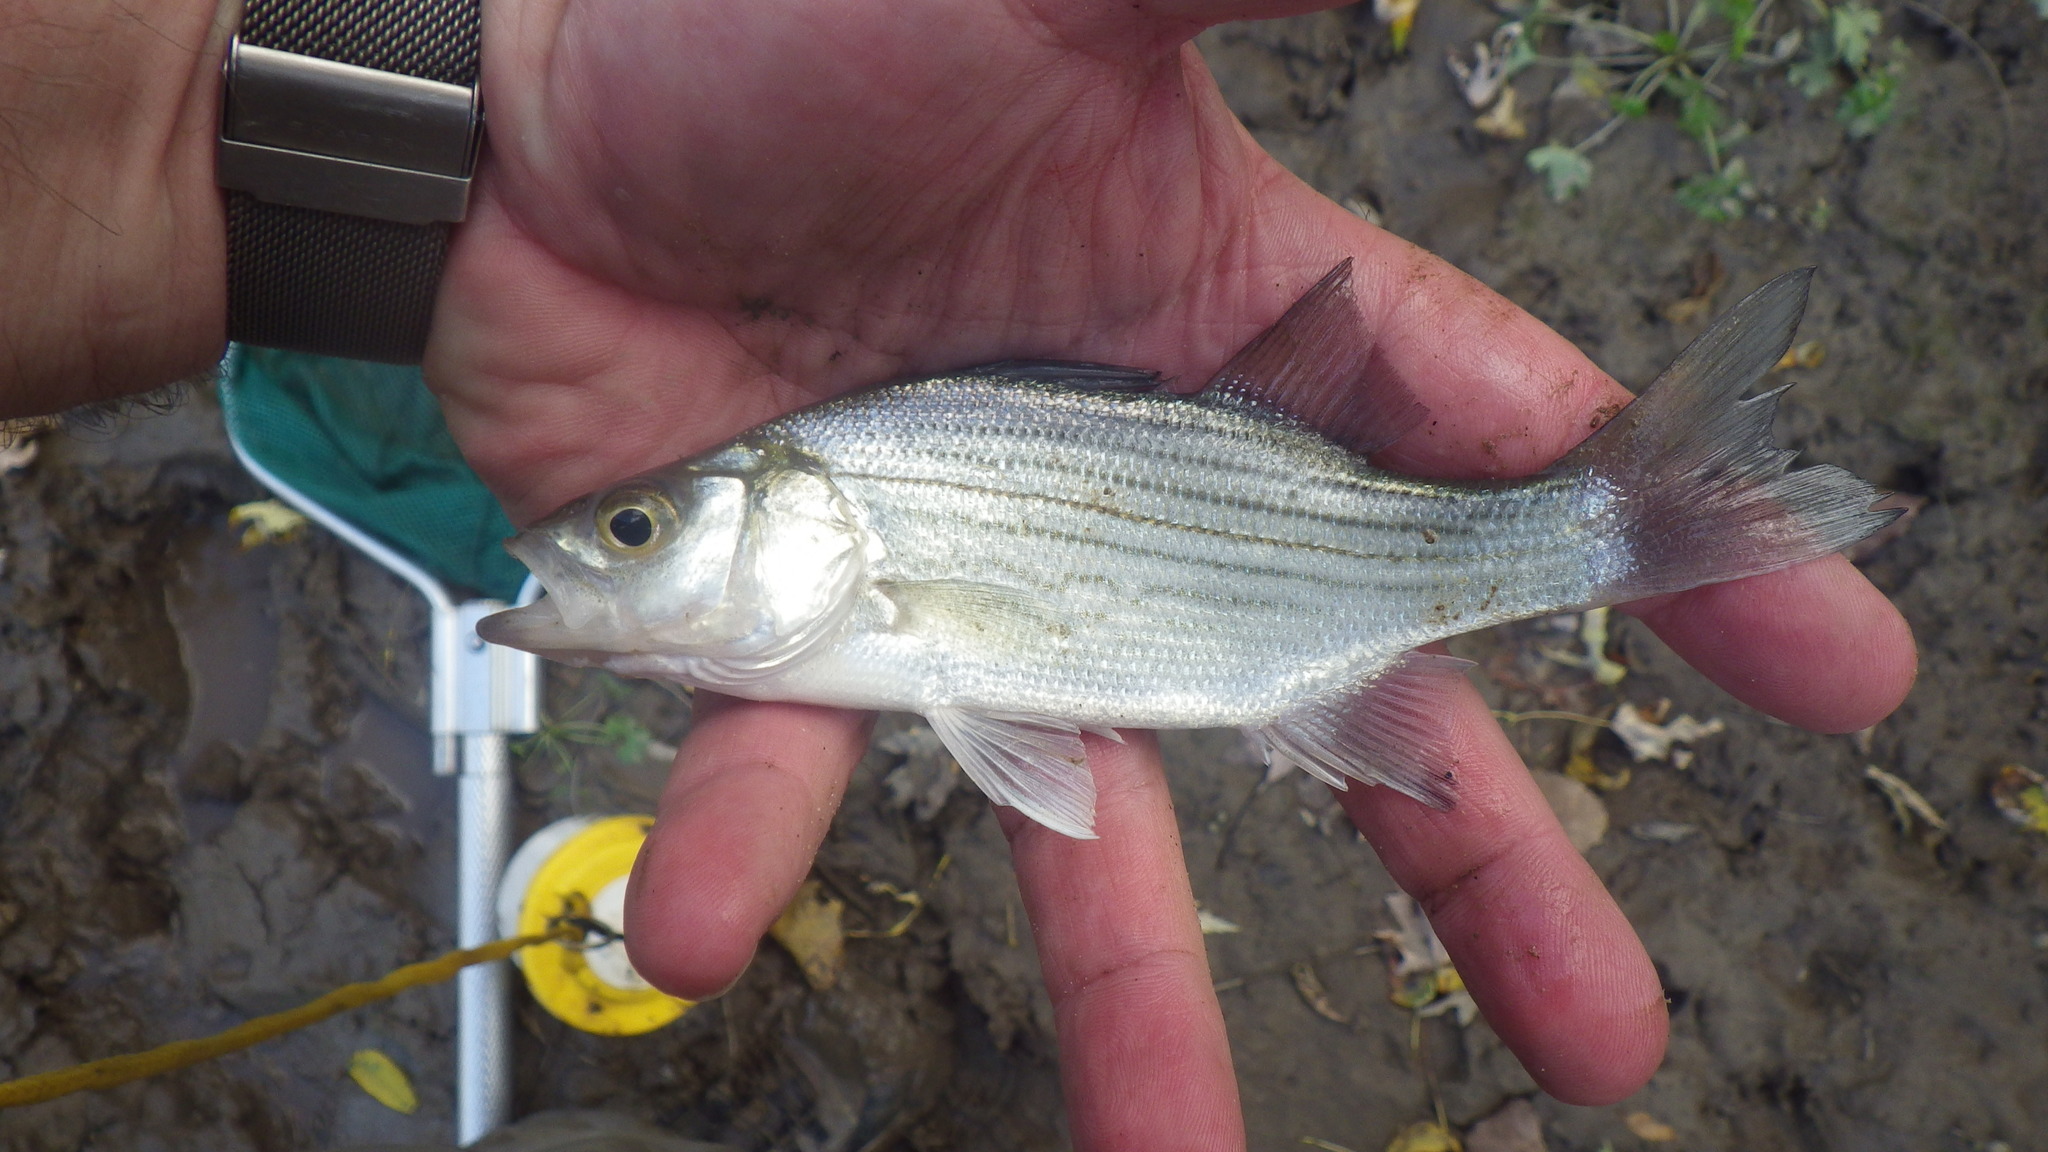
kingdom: Animalia
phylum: Chordata
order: Perciformes
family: Moronidae
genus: Morone
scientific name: Morone chrysops
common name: White bass
